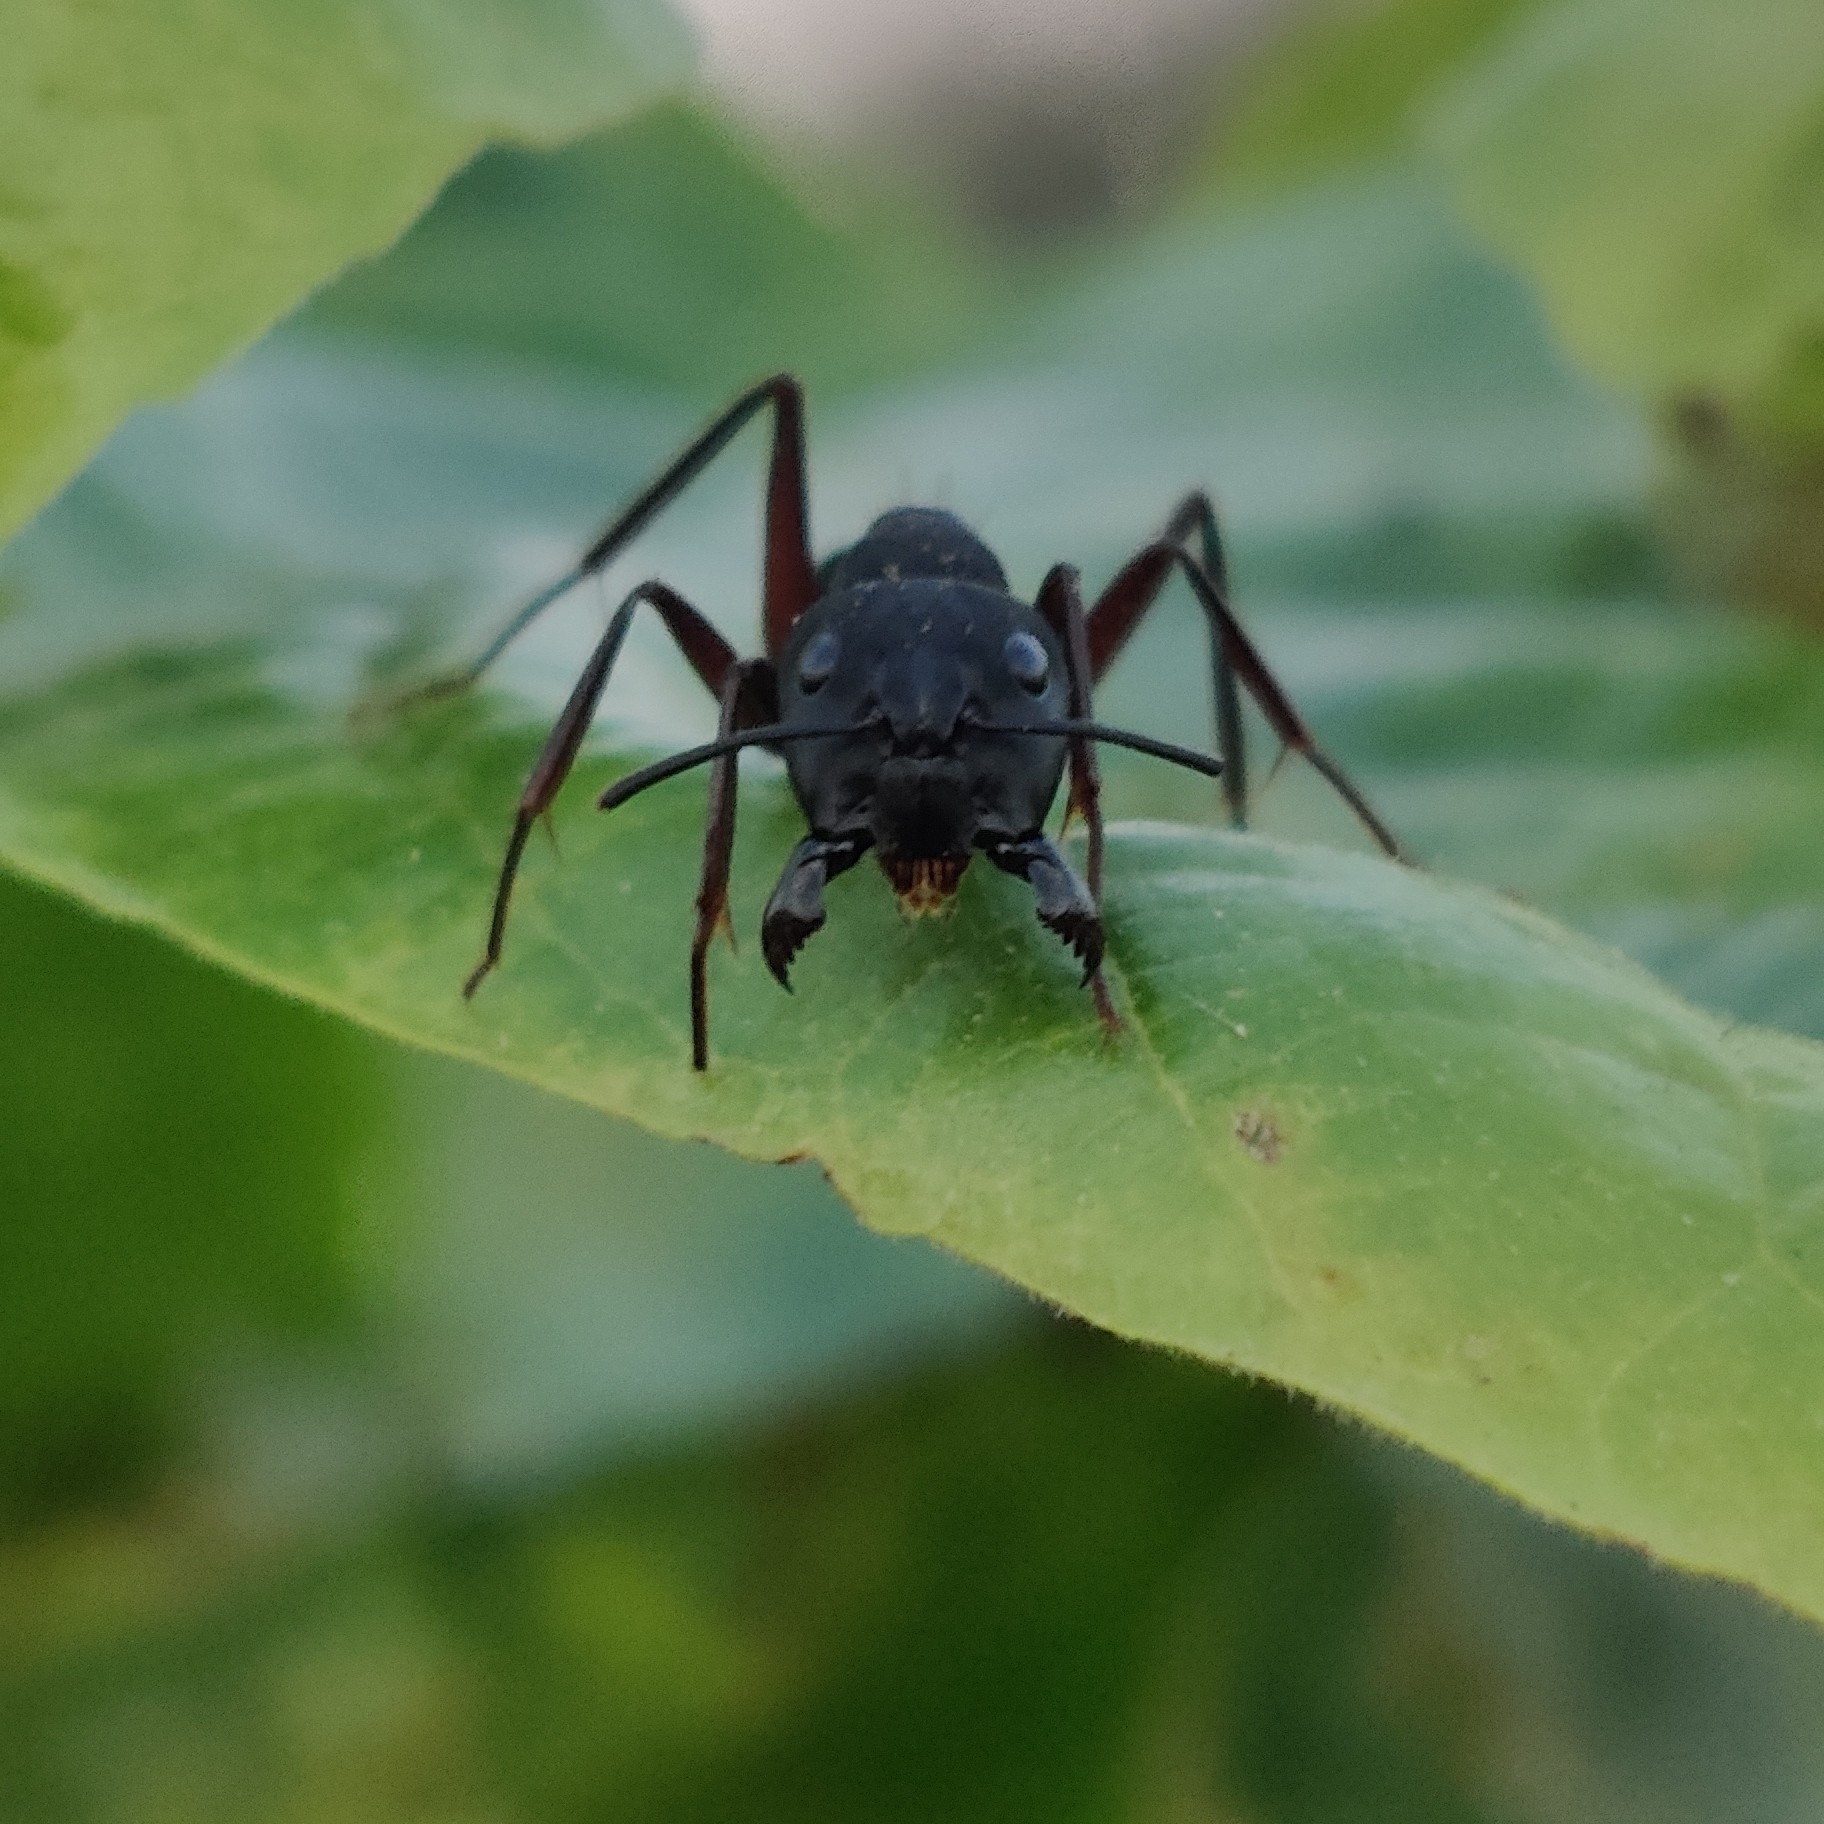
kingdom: Animalia
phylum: Arthropoda
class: Insecta
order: Hymenoptera
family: Formicidae
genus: Camponotus
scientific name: Camponotus compressus
